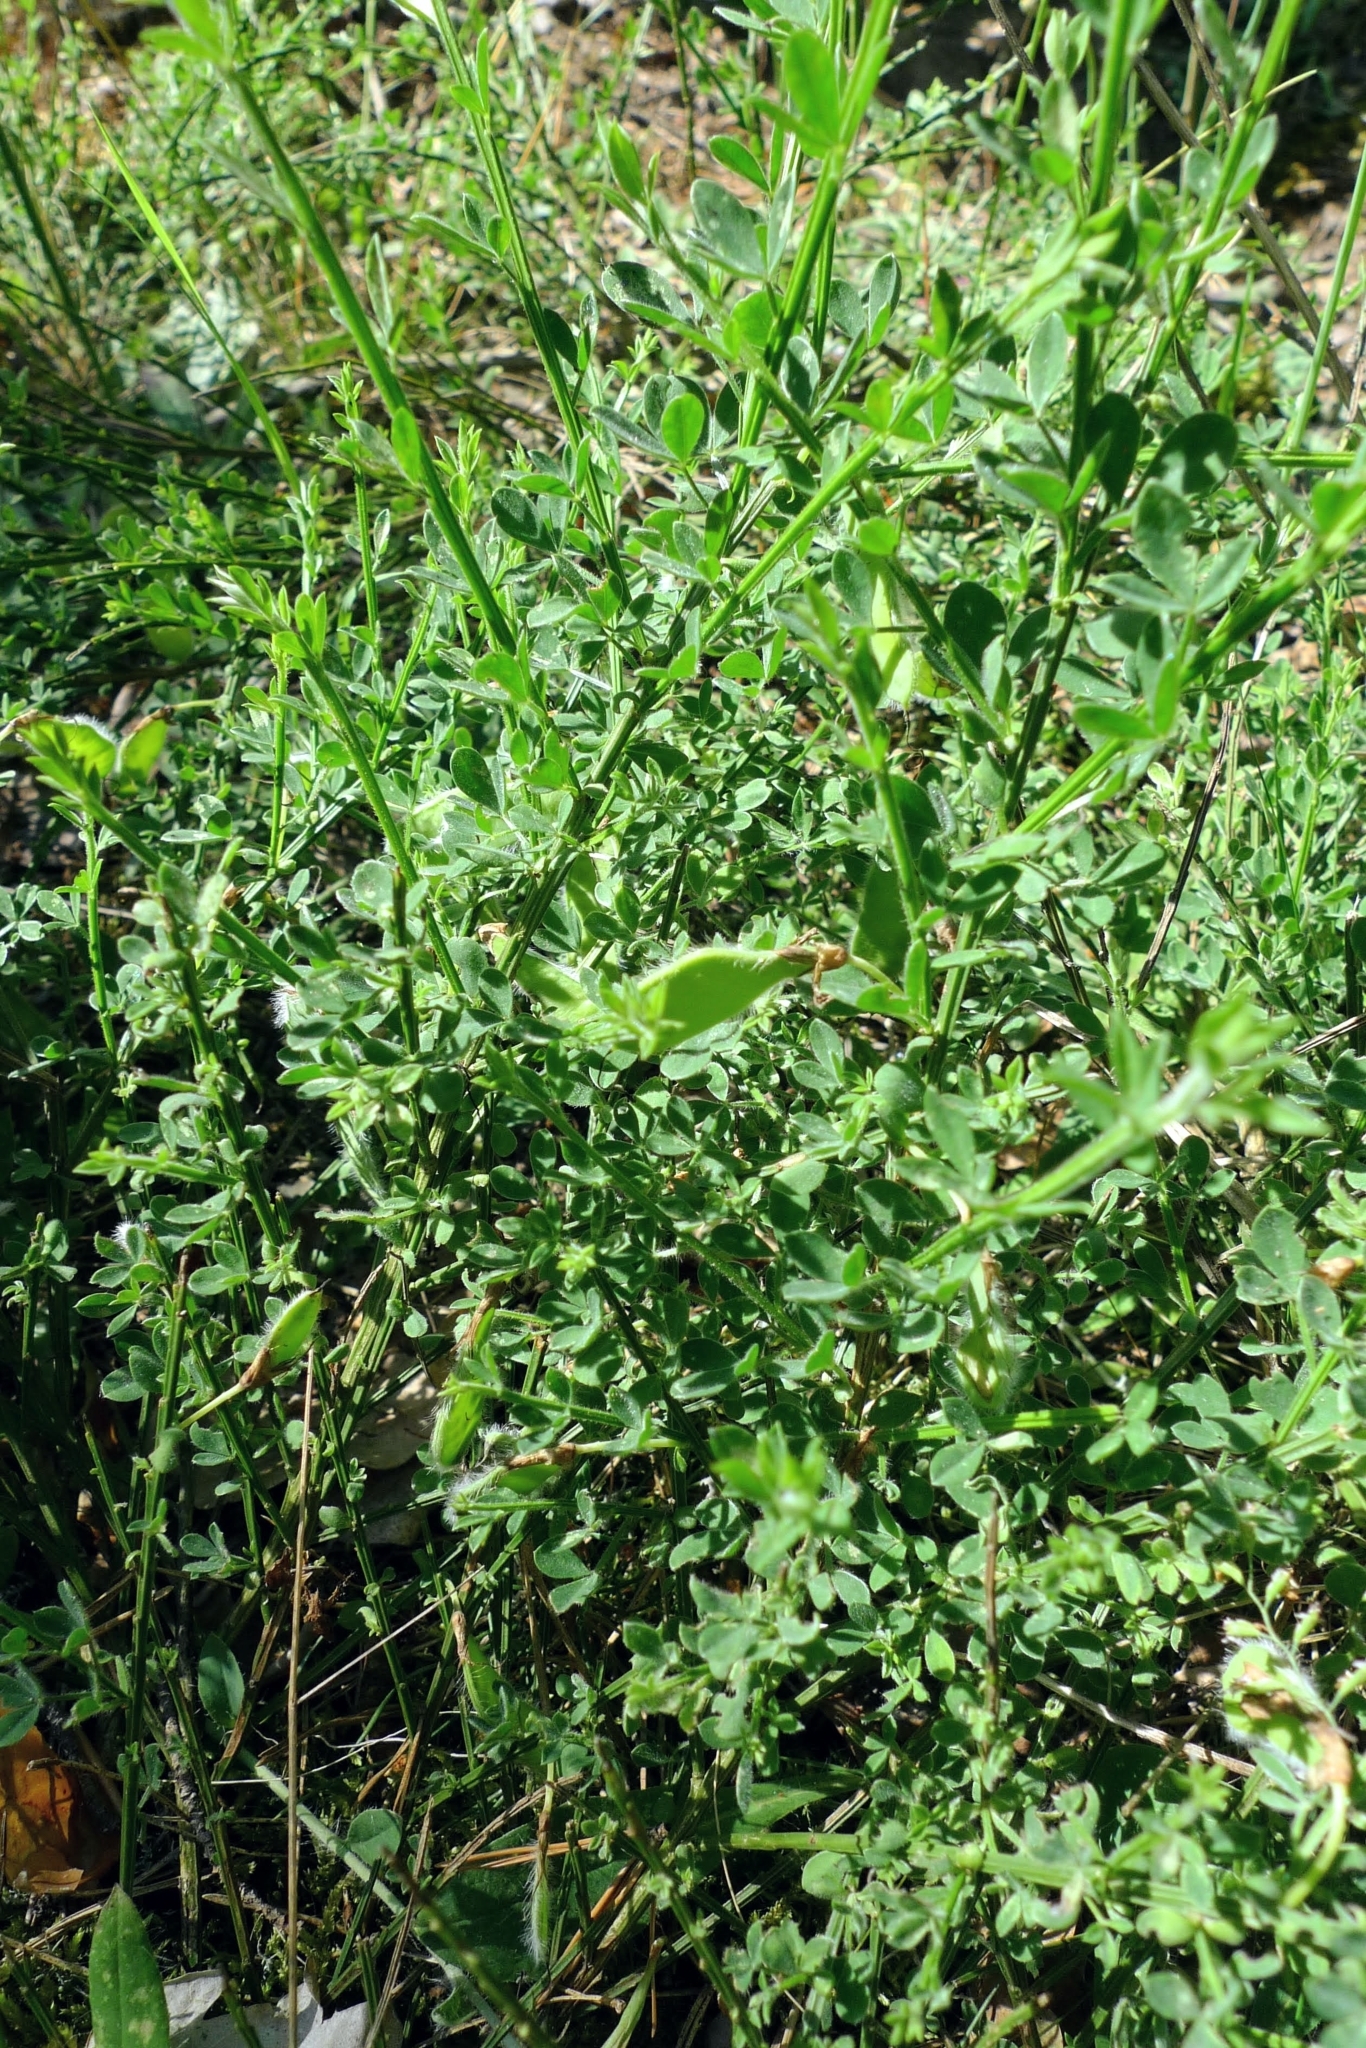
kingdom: Plantae
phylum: Tracheophyta
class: Magnoliopsida
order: Fabales
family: Fabaceae
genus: Cytisus
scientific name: Cytisus scoparius
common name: Scotch broom
